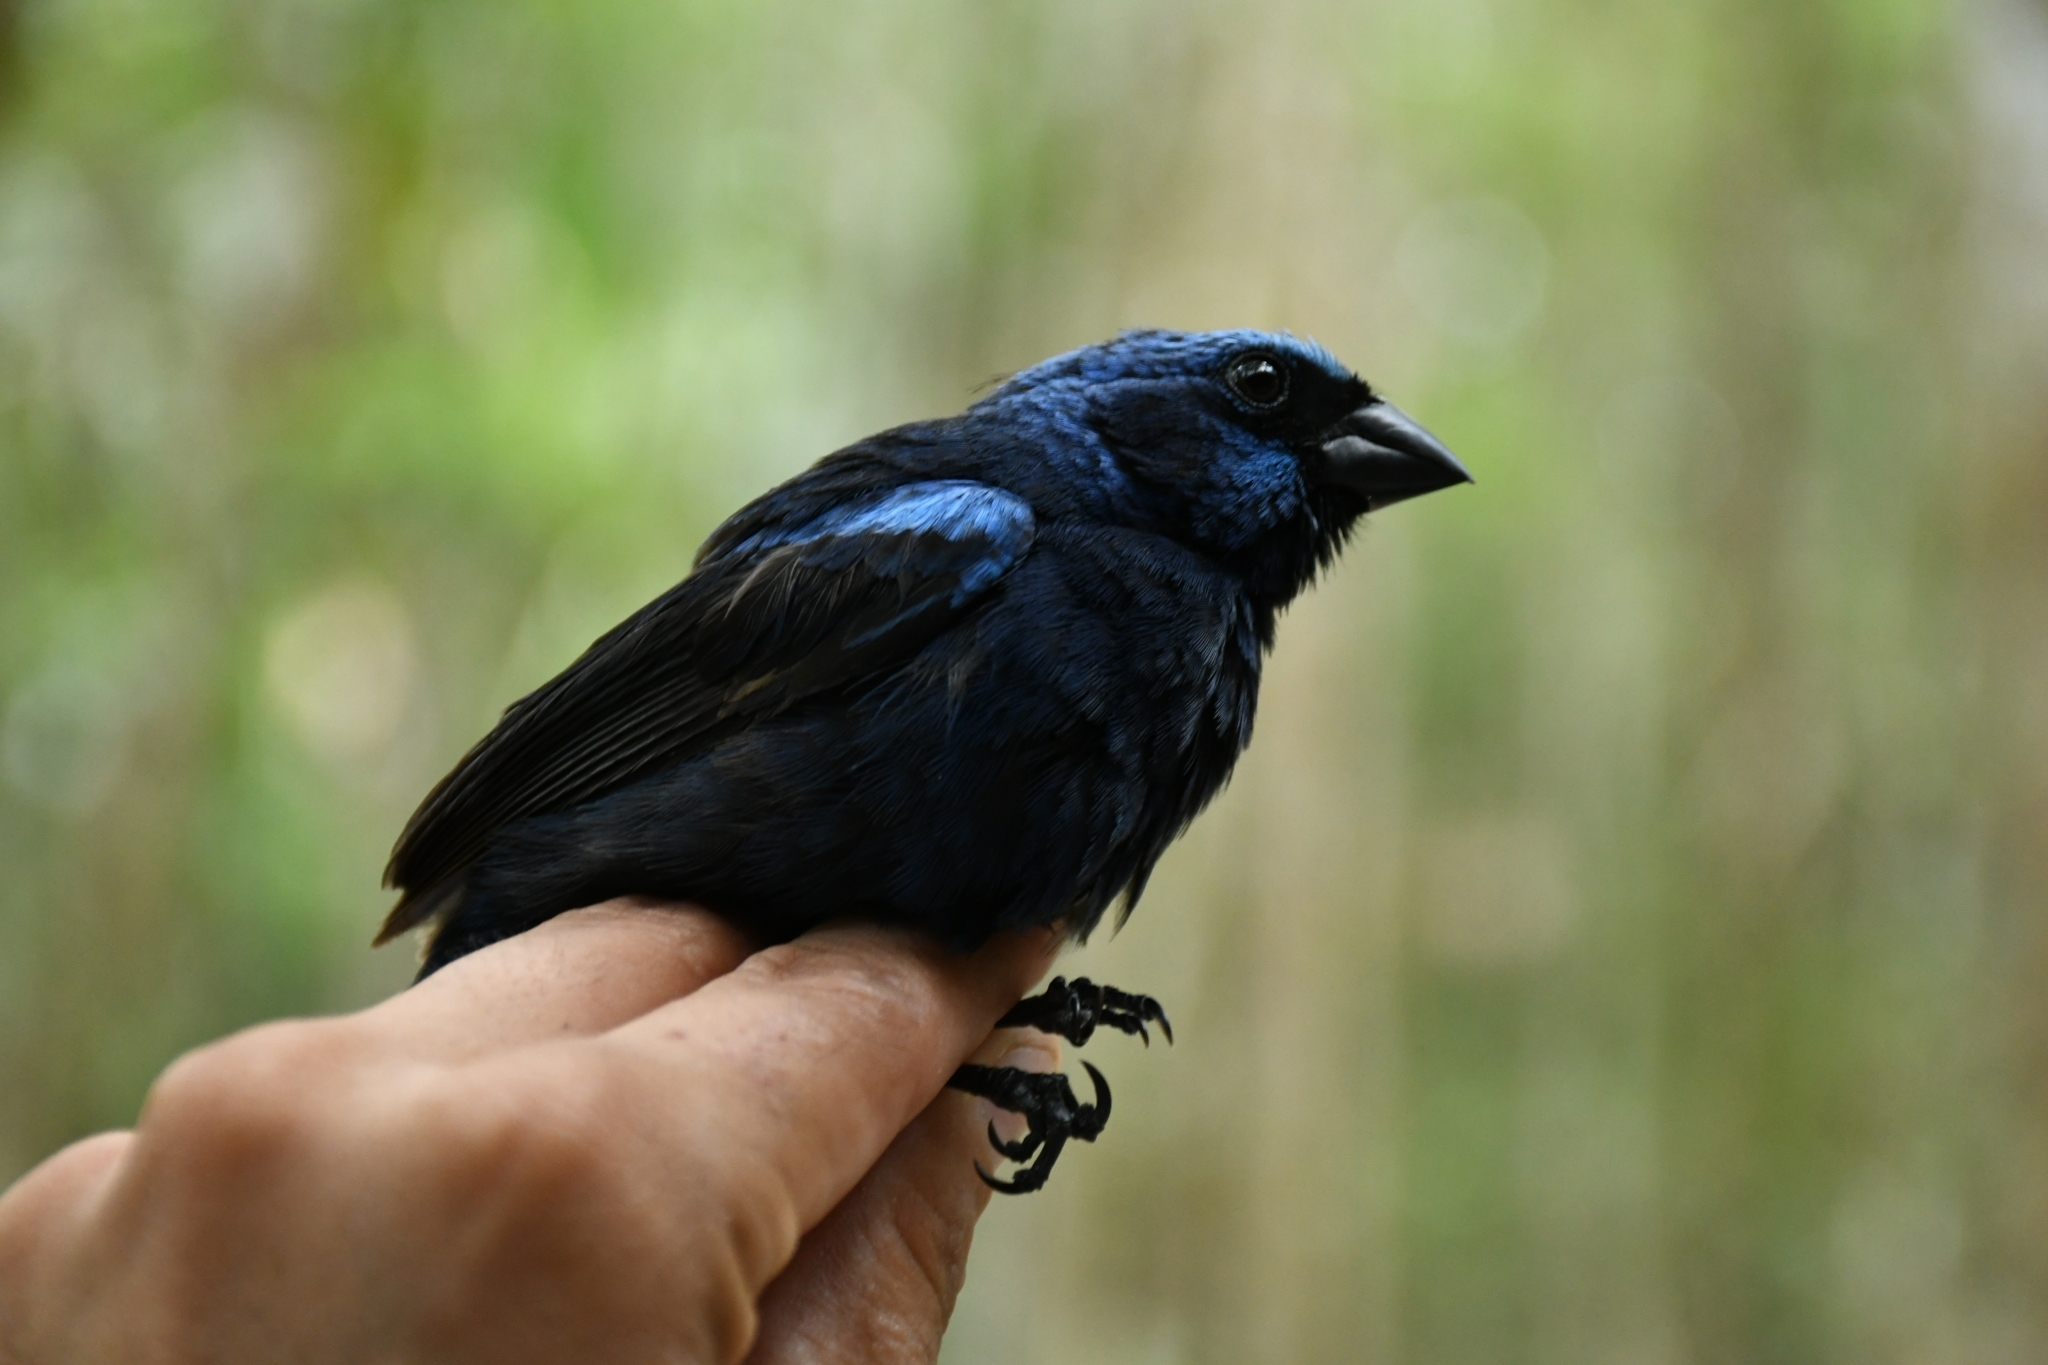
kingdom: Animalia
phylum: Chordata
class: Aves
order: Passeriformes
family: Cardinalidae
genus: Cyanocompsa
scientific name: Cyanocompsa parellina
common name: Blue bunting
